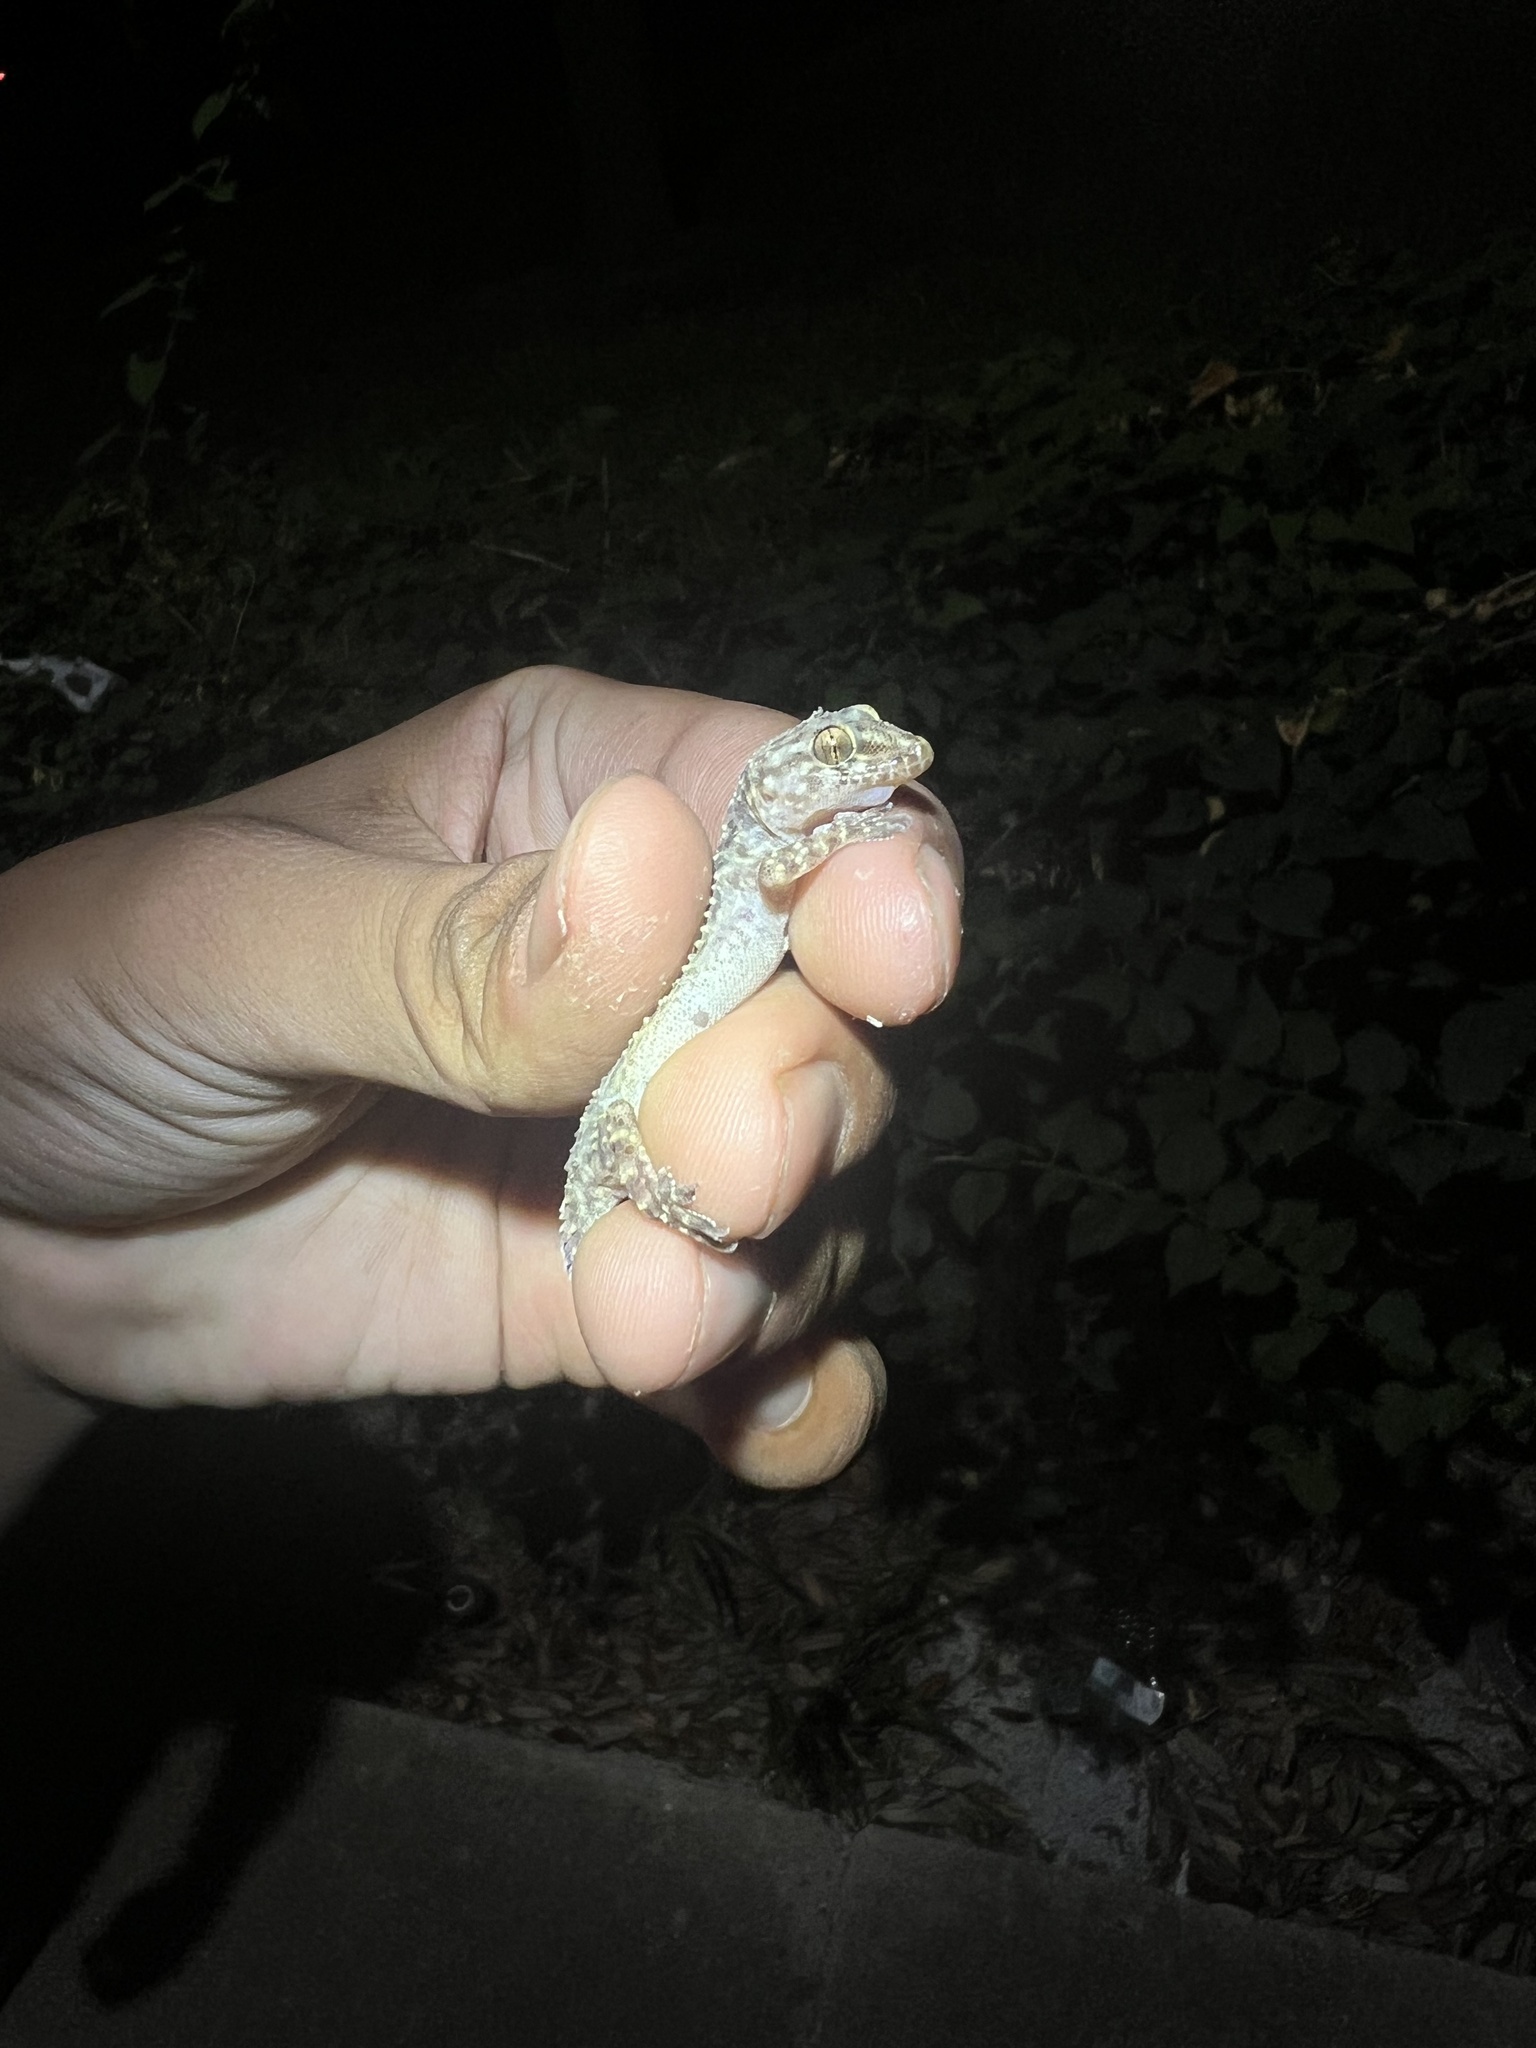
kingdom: Animalia
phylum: Chordata
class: Squamata
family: Gekkonidae
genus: Hemidactylus
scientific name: Hemidactylus turcicus
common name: Turkish gecko
